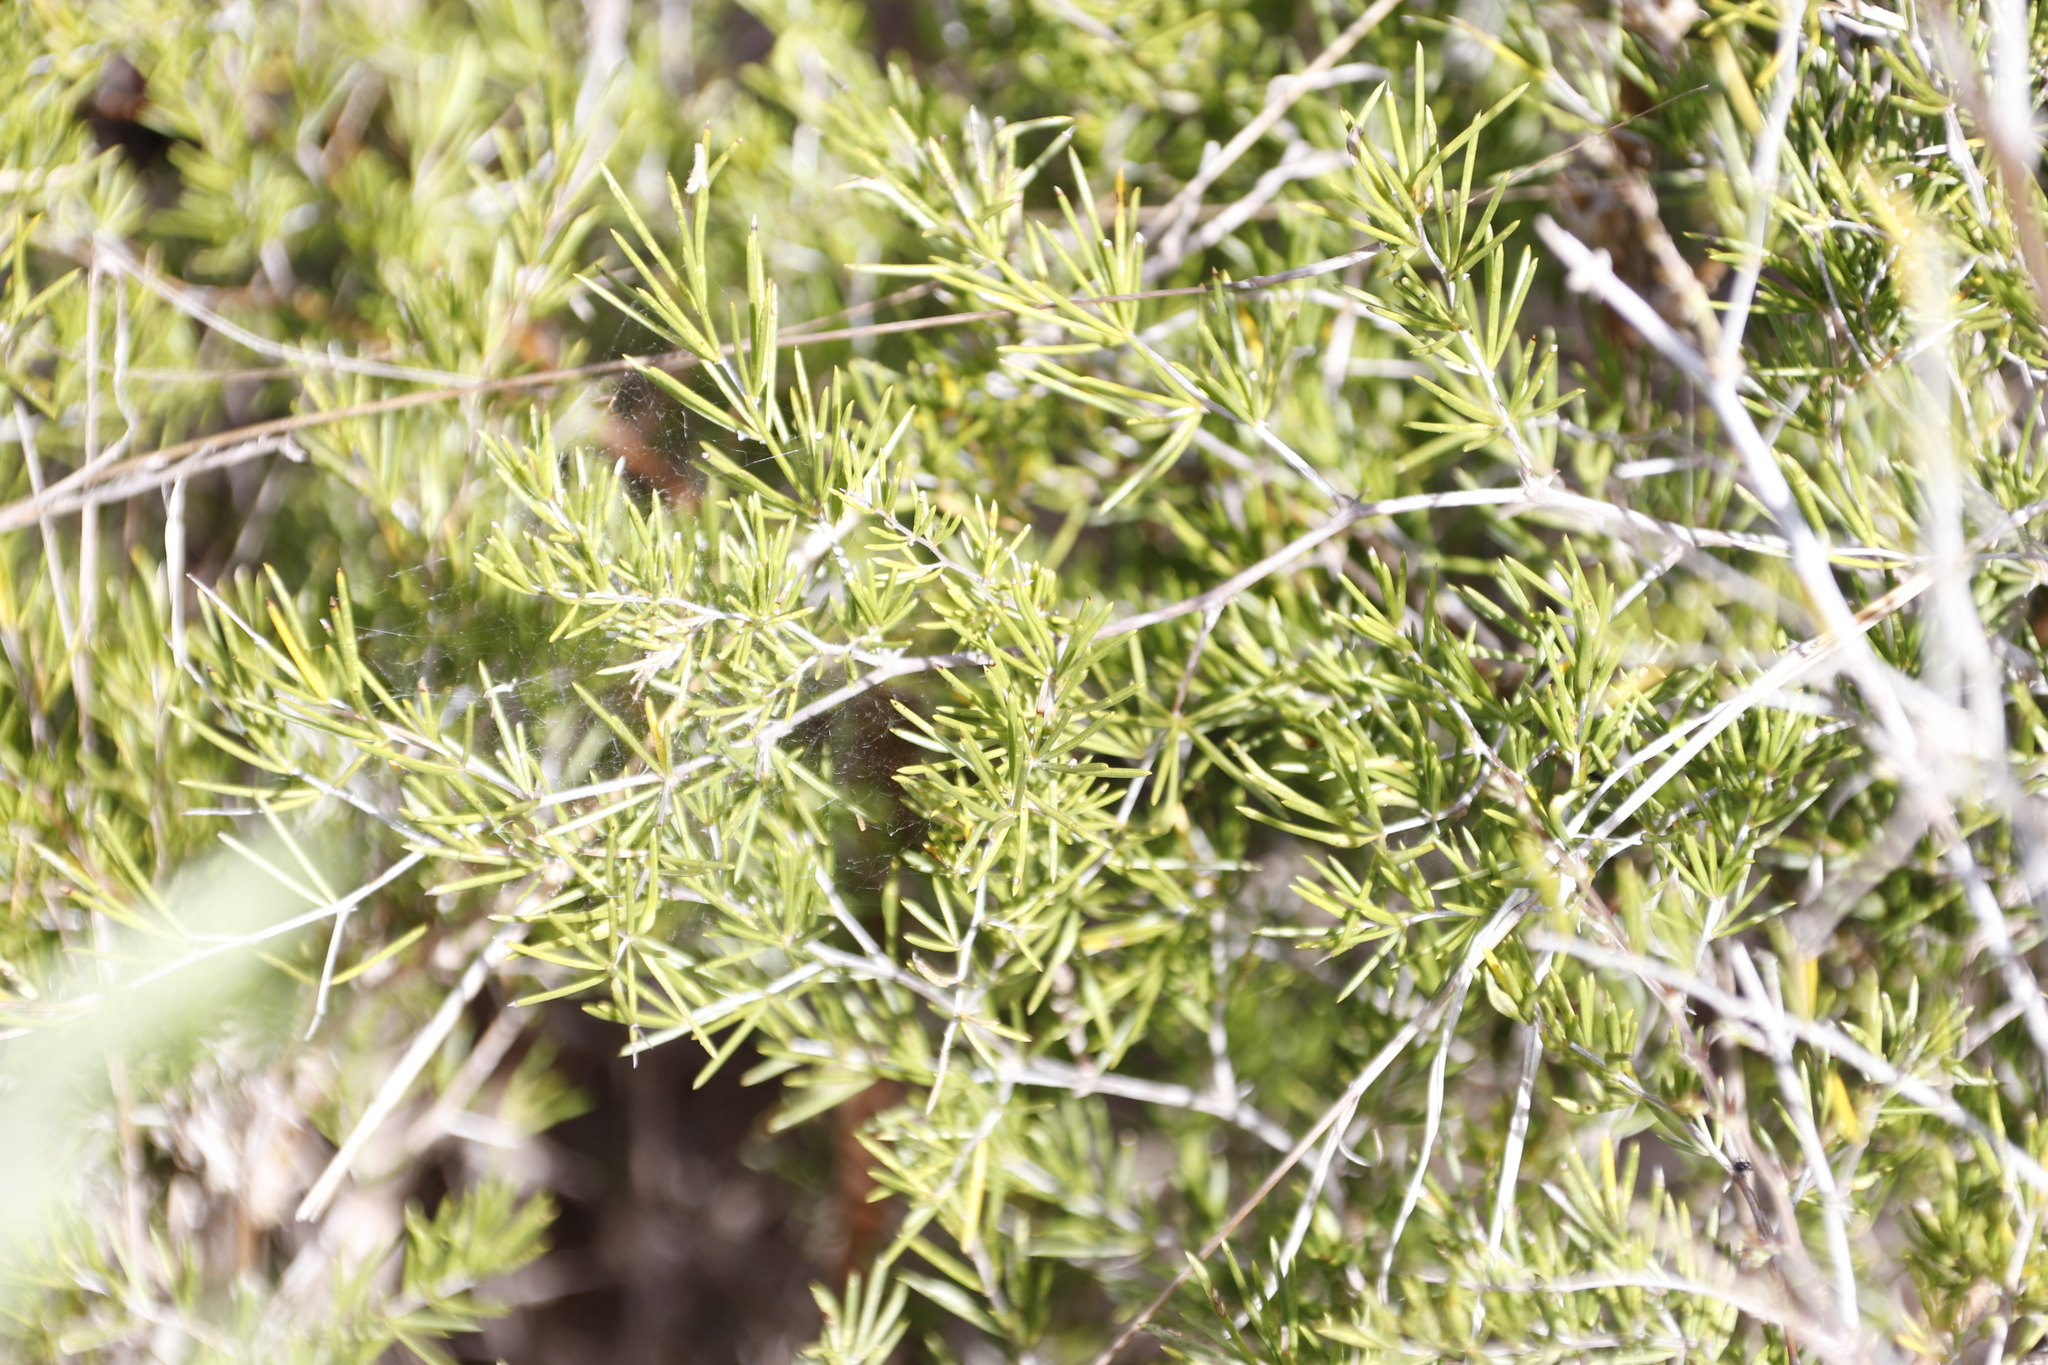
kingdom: Plantae
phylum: Tracheophyta
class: Liliopsida
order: Asparagales
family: Asparagaceae
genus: Asparagus
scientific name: Asparagus lignosus
